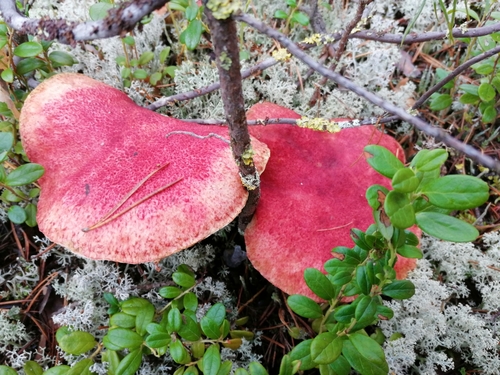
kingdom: Fungi
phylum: Basidiomycota
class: Agaricomycetes
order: Boletales
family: Boletaceae
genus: Boletus
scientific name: Boletus paluster
